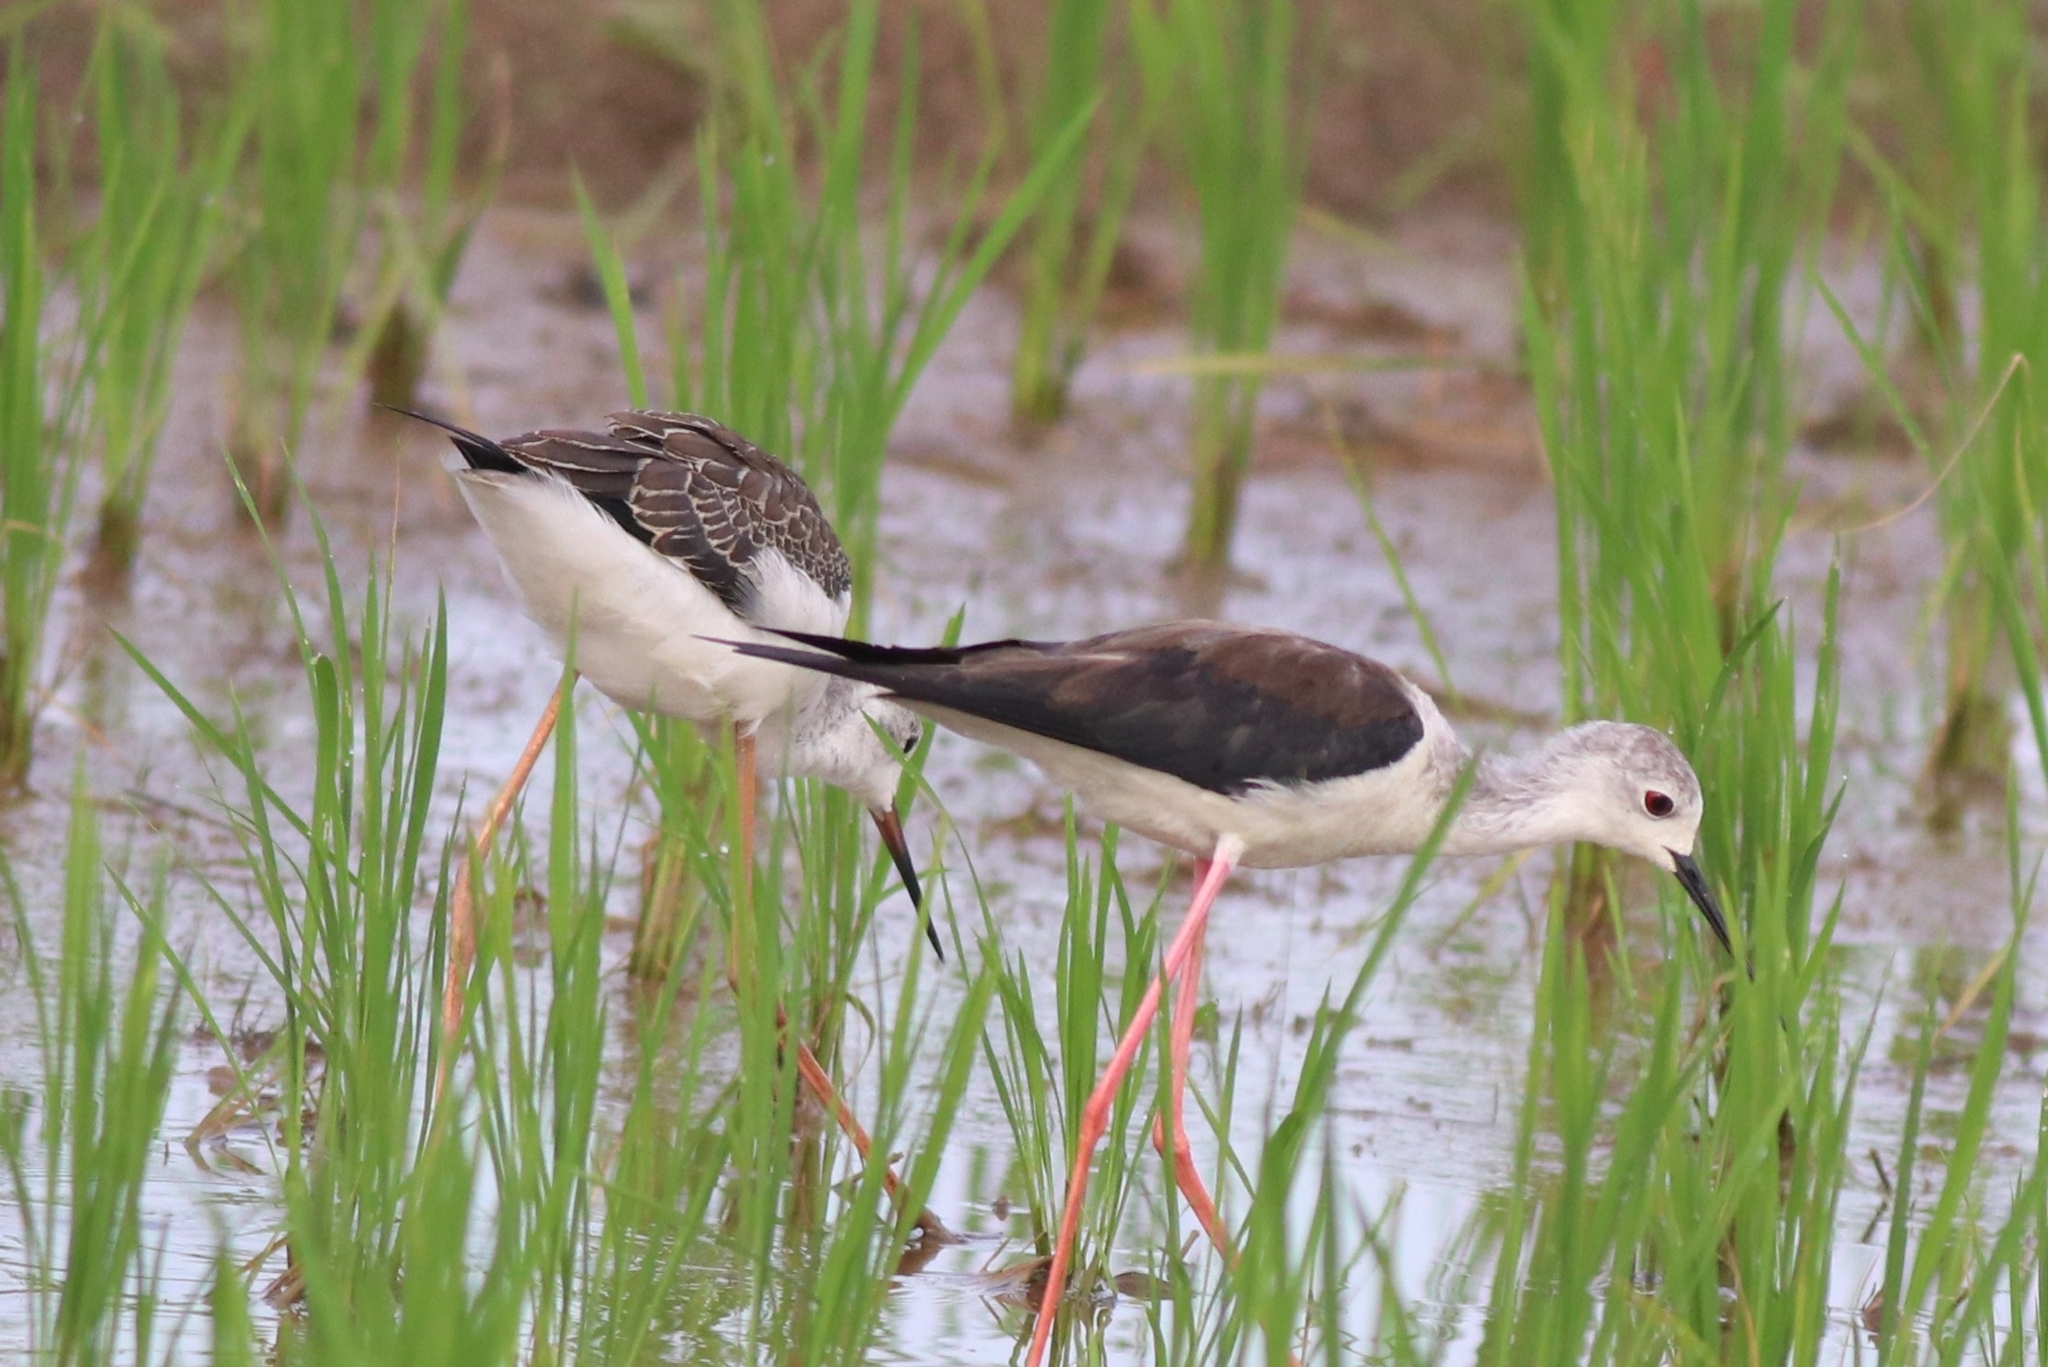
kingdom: Animalia
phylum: Chordata
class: Aves
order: Charadriiformes
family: Recurvirostridae
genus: Himantopus
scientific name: Himantopus himantopus
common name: Black-winged stilt
